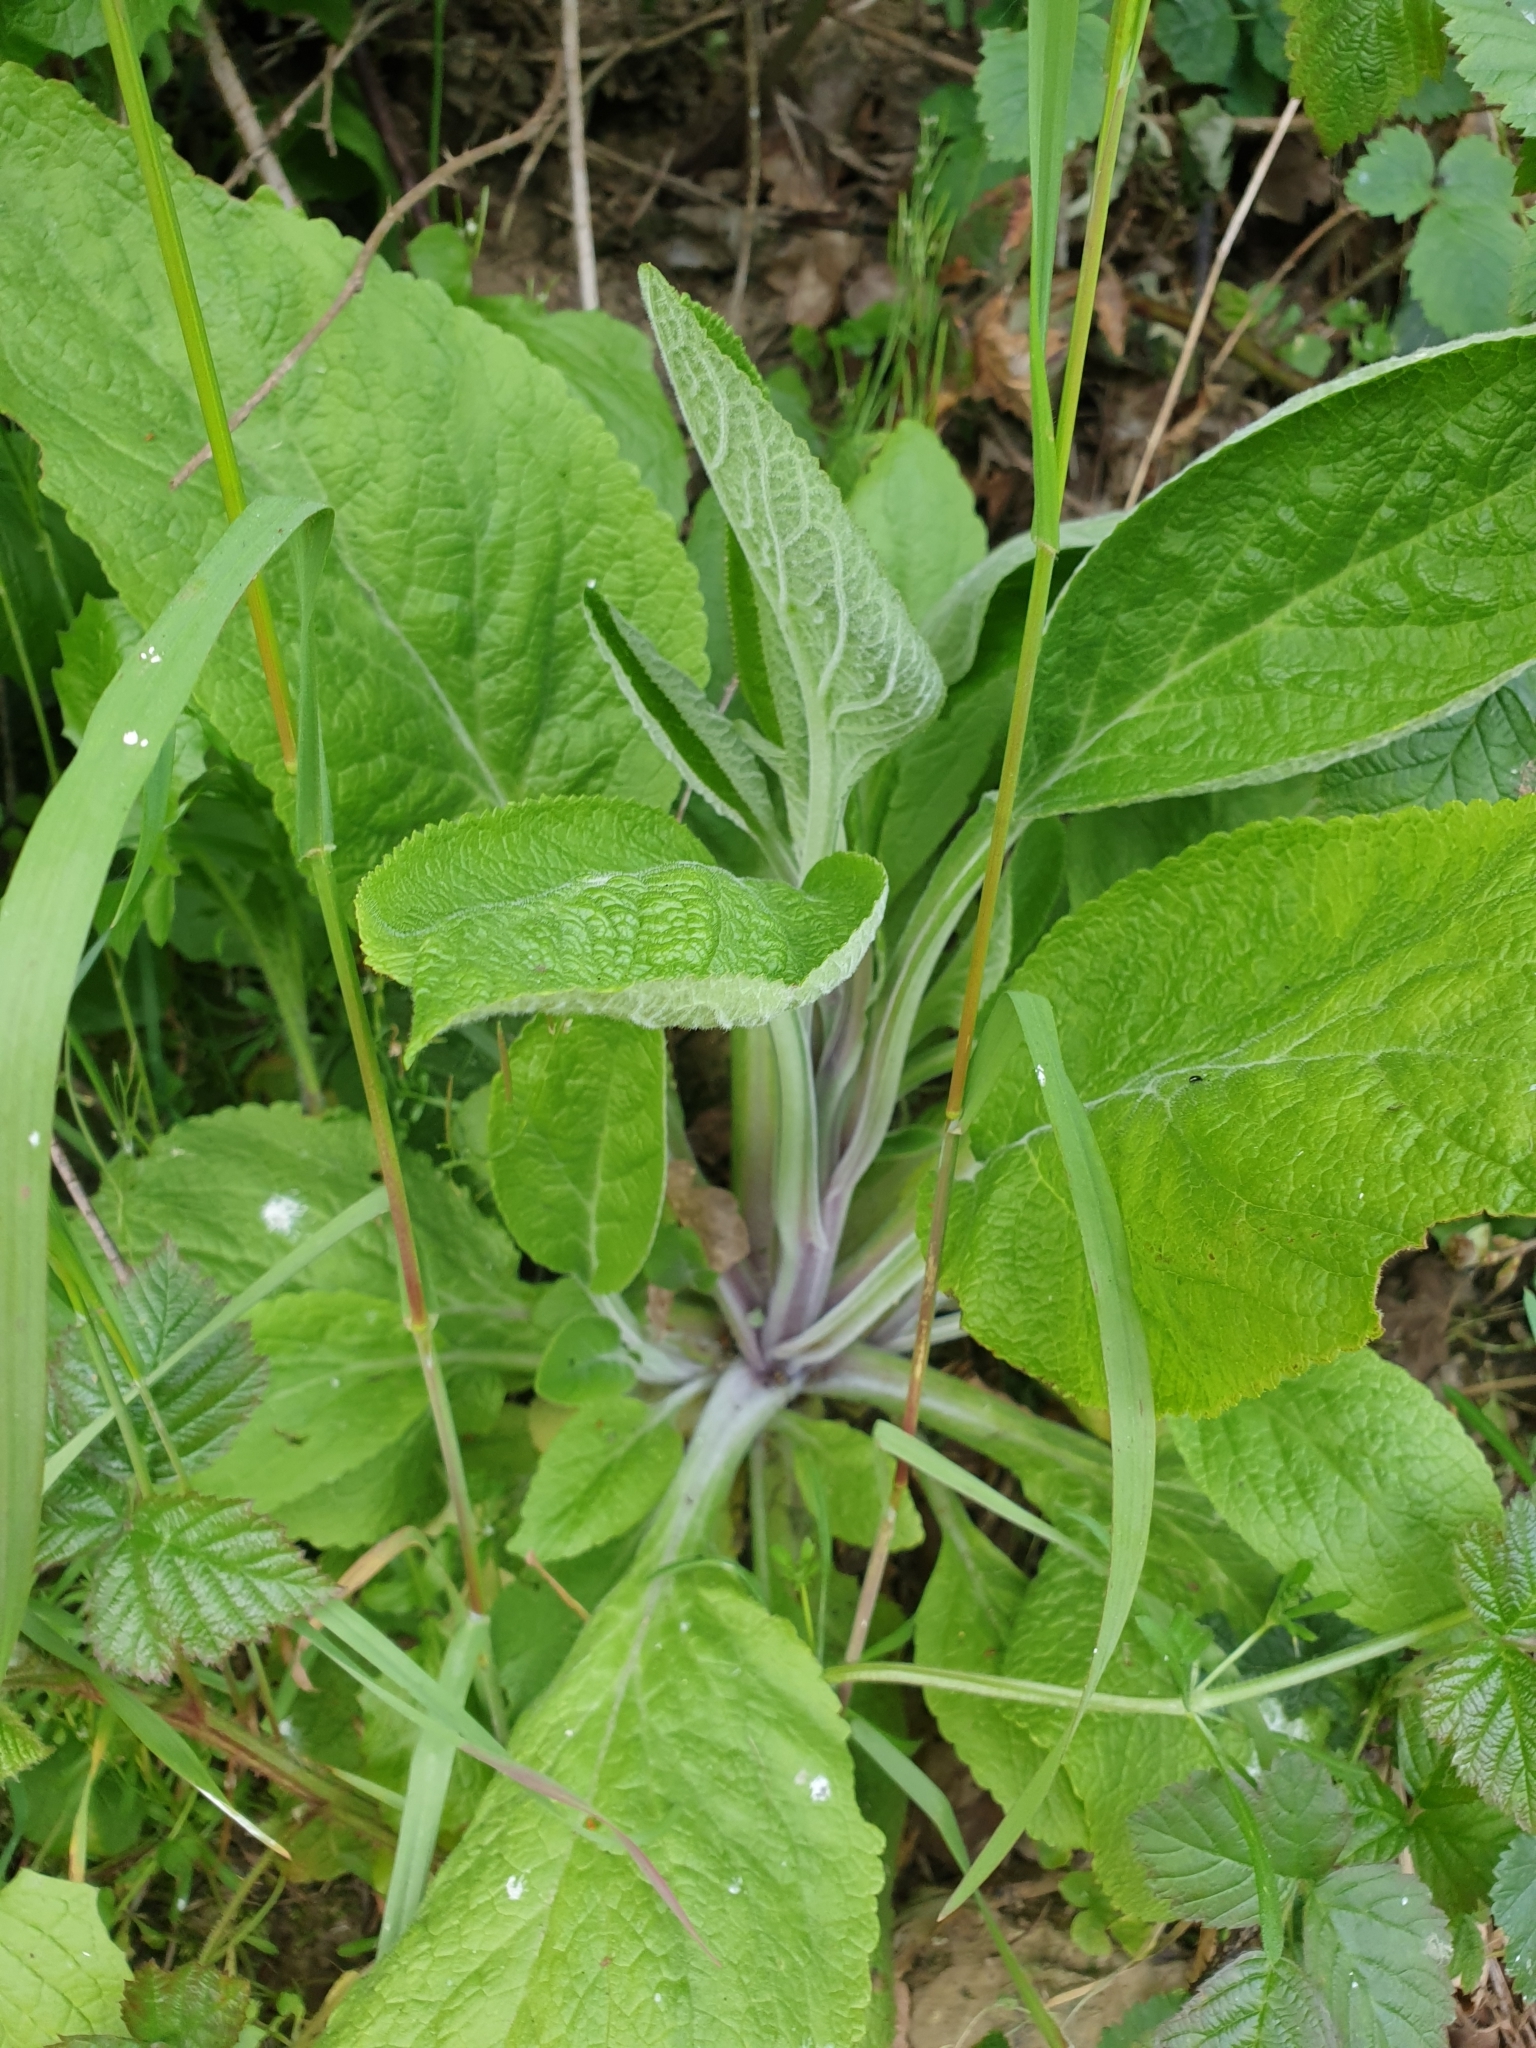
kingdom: Plantae
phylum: Tracheophyta
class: Magnoliopsida
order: Lamiales
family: Plantaginaceae
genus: Digitalis
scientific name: Digitalis purpurea
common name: Foxglove
